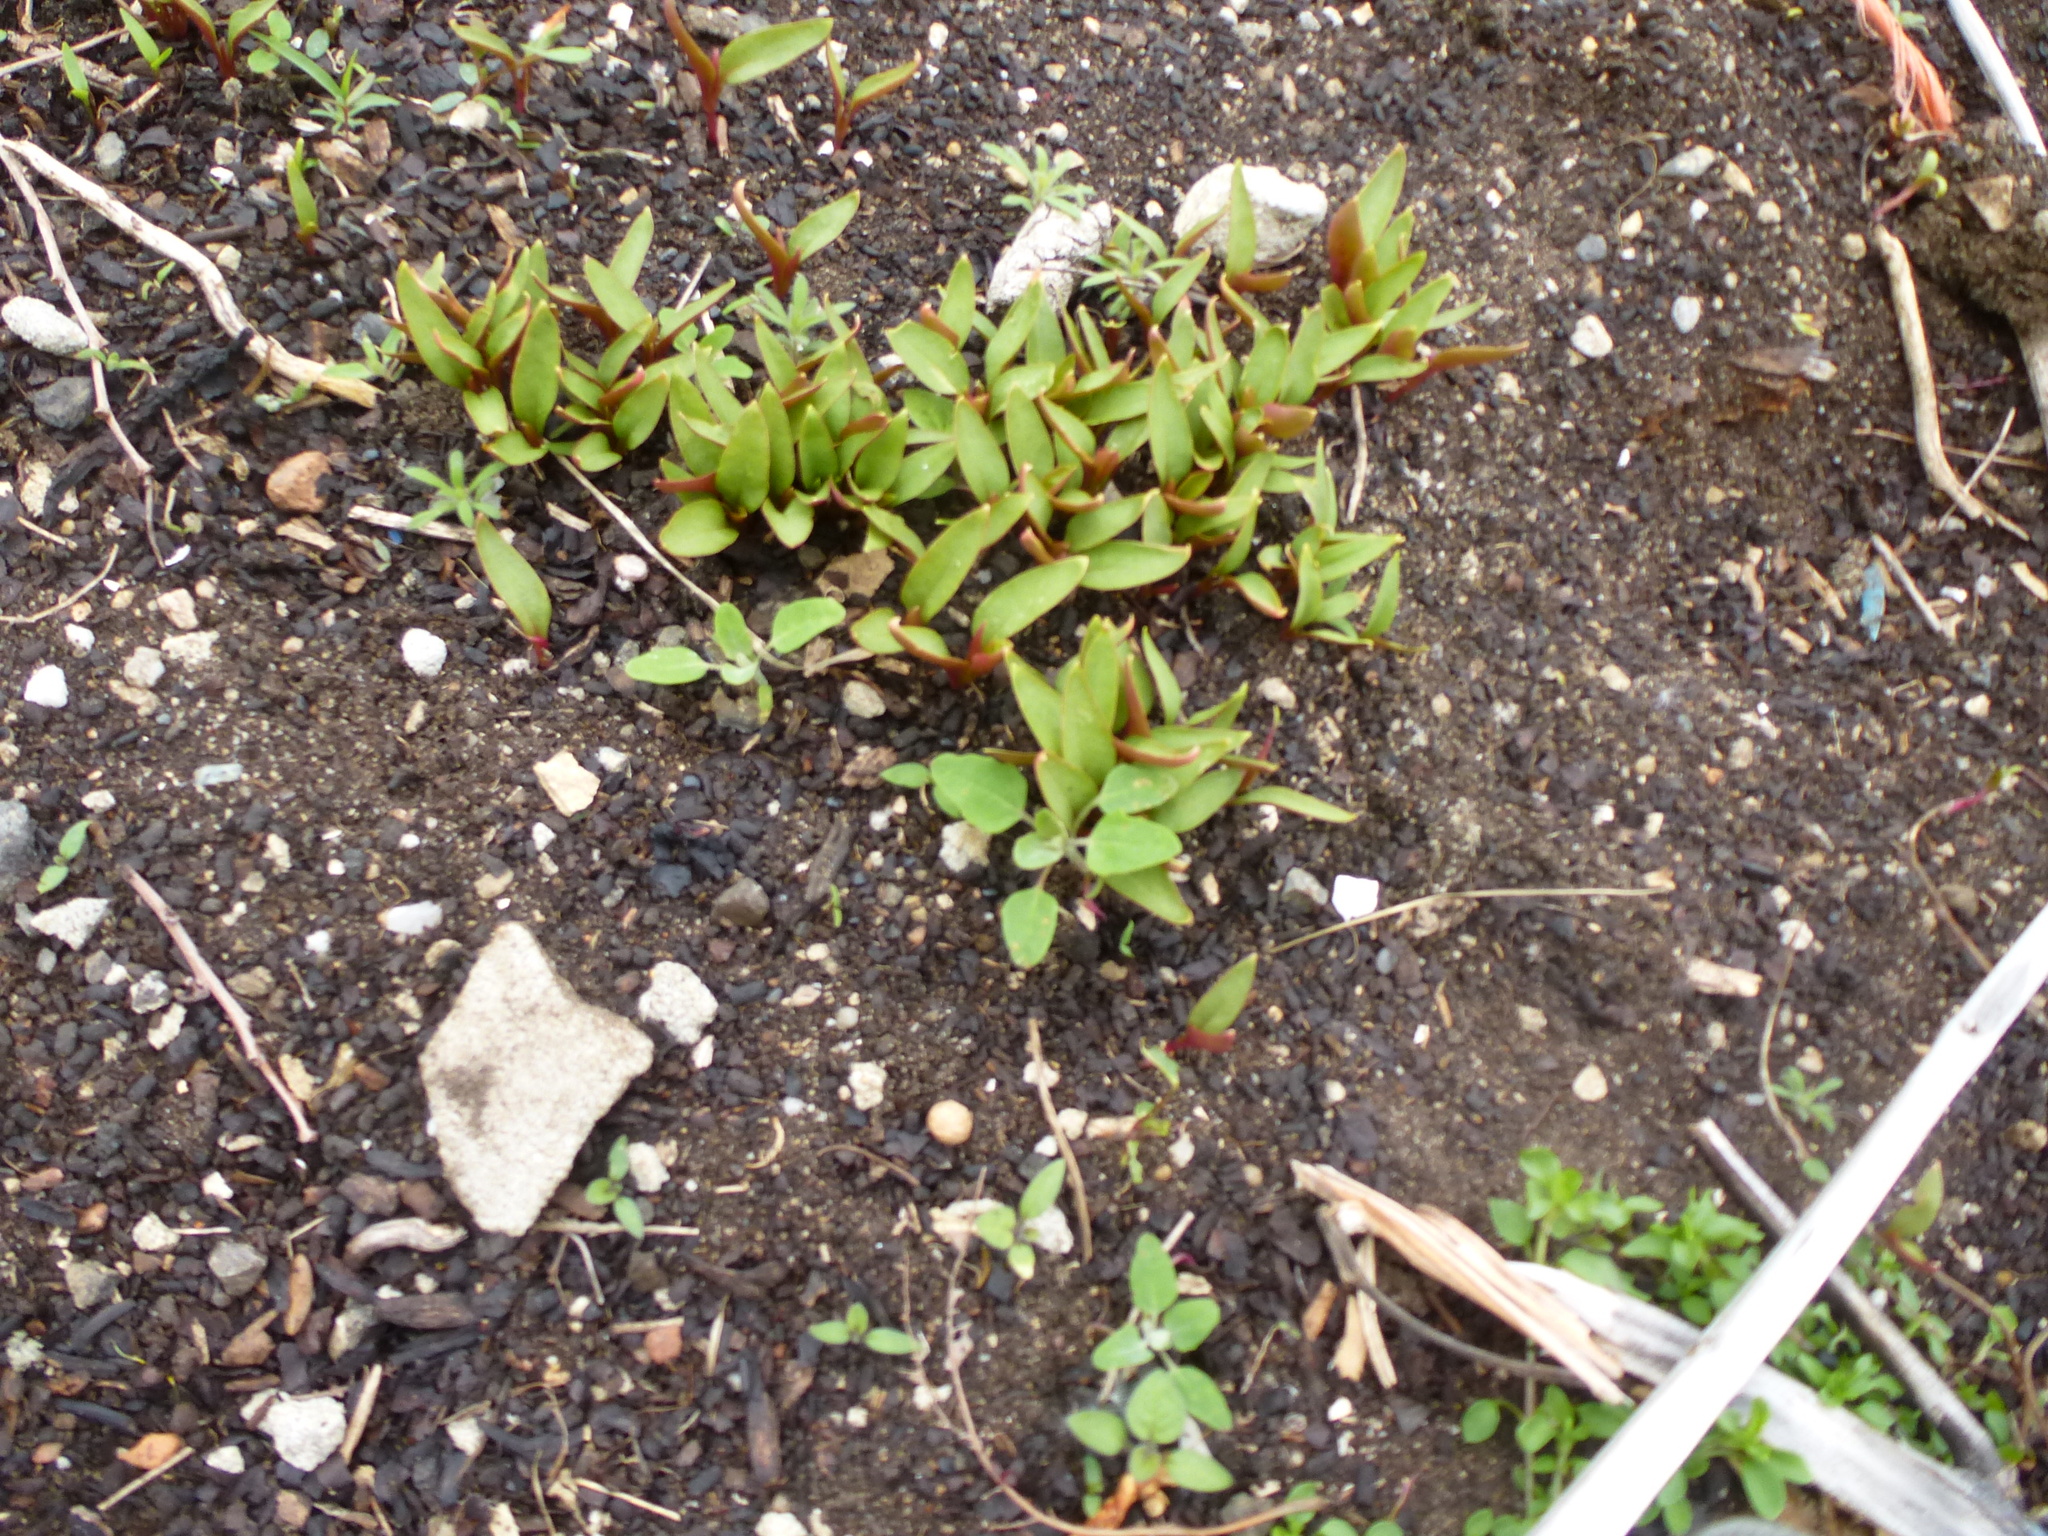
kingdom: Plantae
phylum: Tracheophyta
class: Magnoliopsida
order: Caryophyllales
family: Phytolaccaceae
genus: Phytolacca
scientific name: Phytolacca americana
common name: American pokeweed
